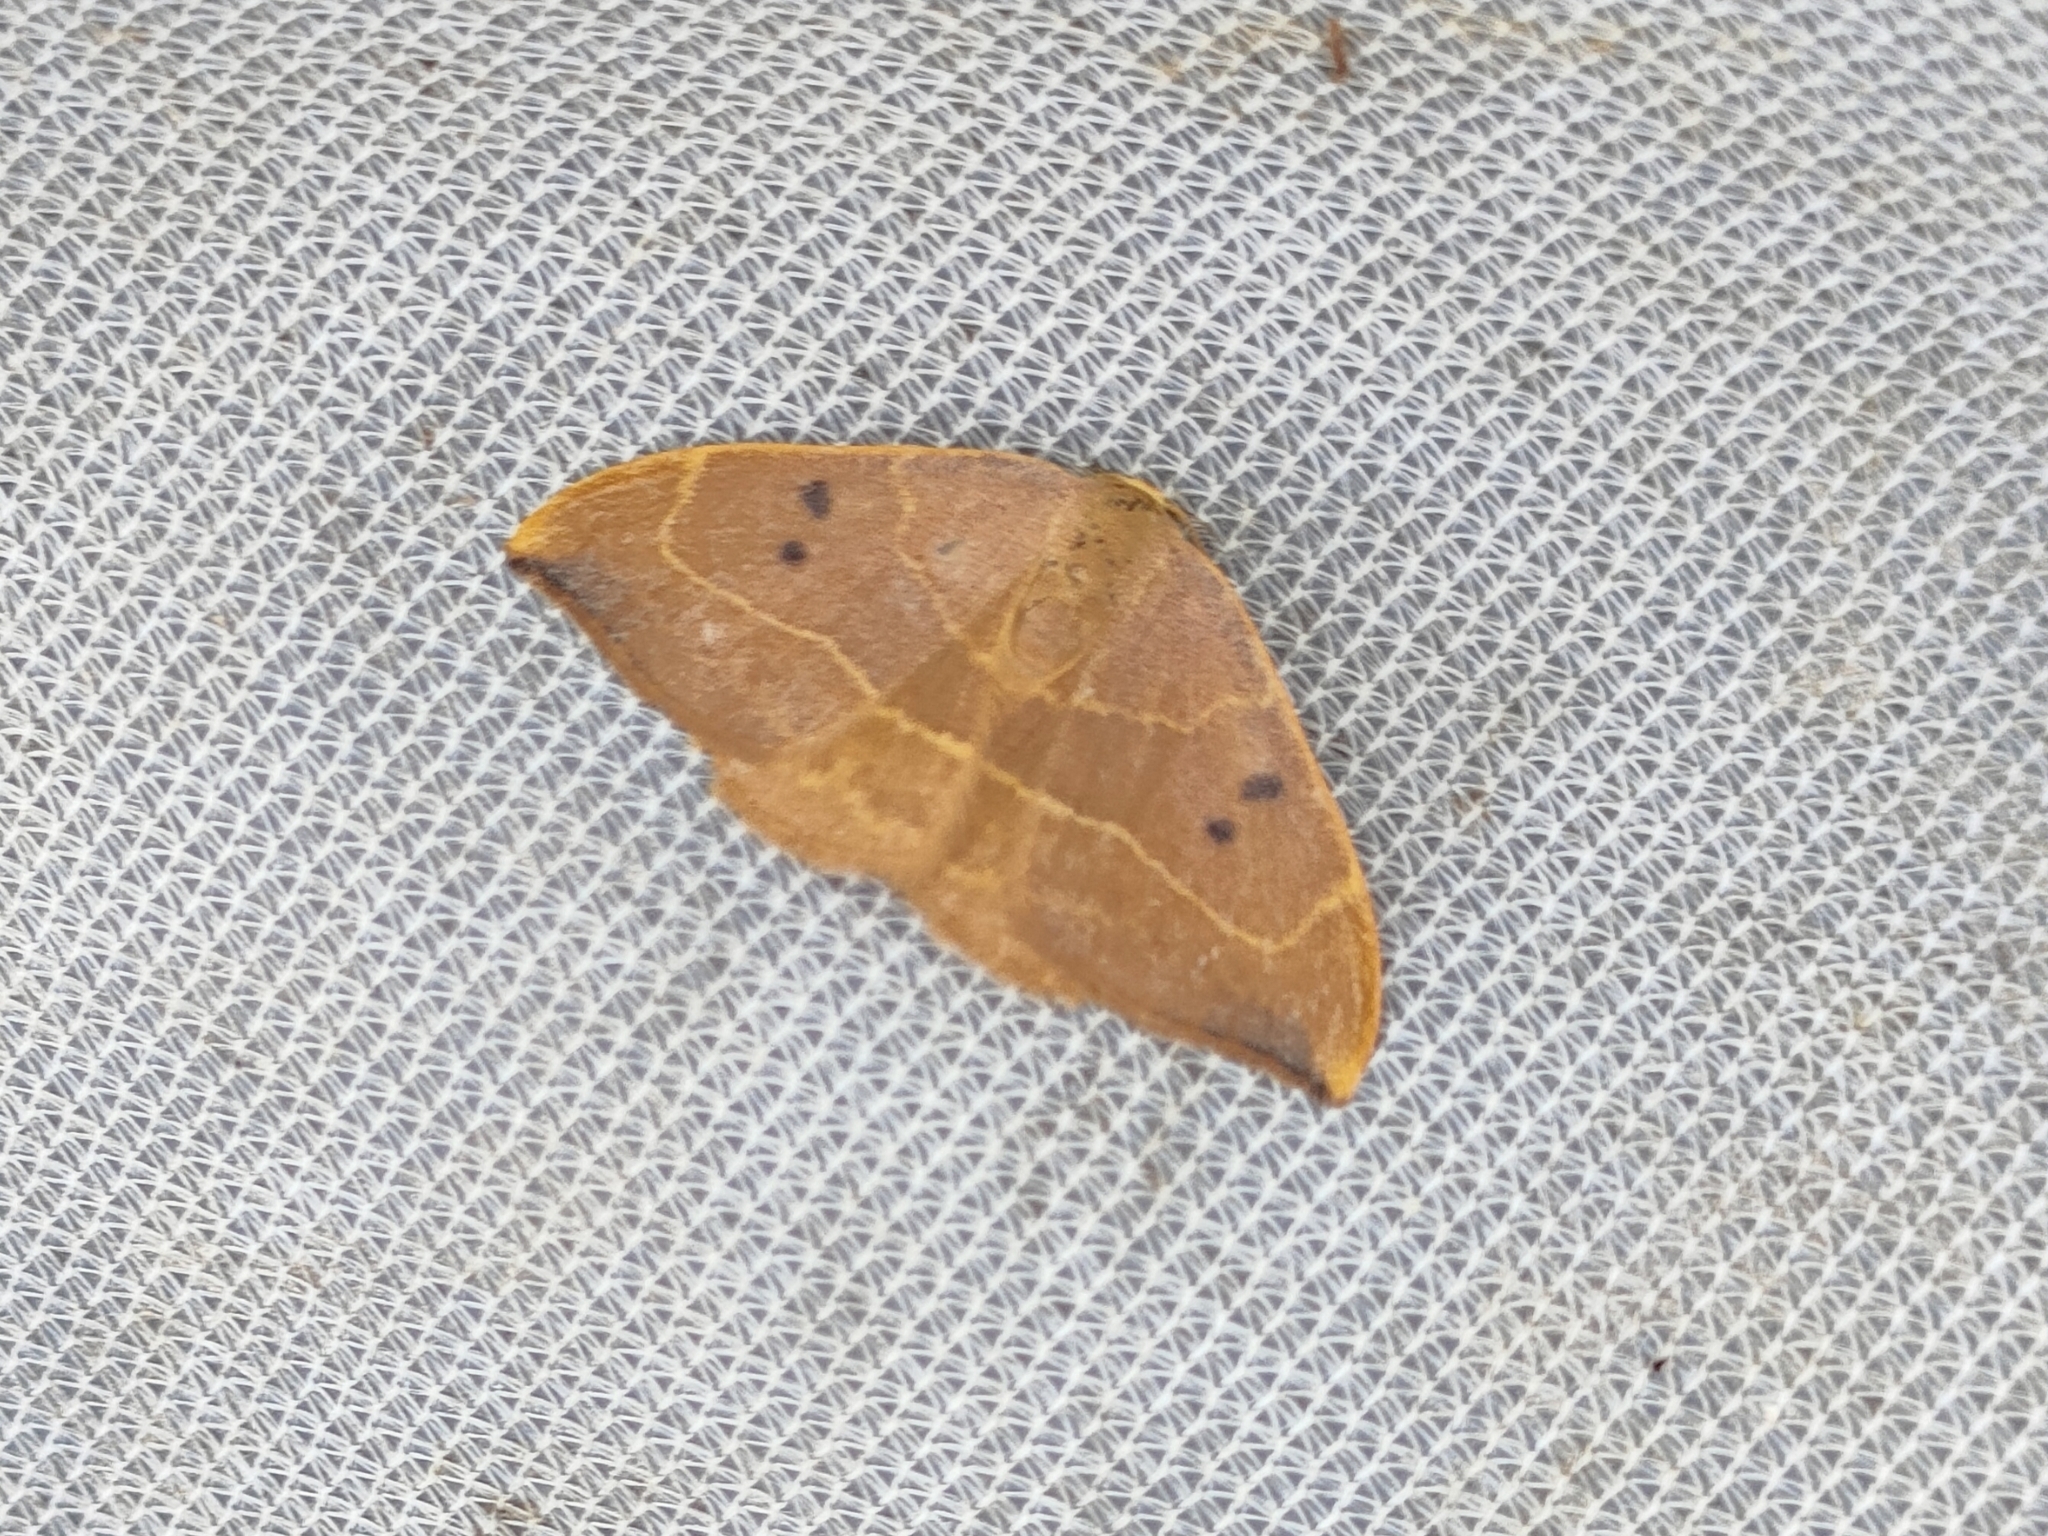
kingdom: Animalia
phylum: Arthropoda
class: Insecta
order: Lepidoptera
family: Drepanidae
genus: Watsonalla
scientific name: Watsonalla binaria
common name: Oak hook-tip
